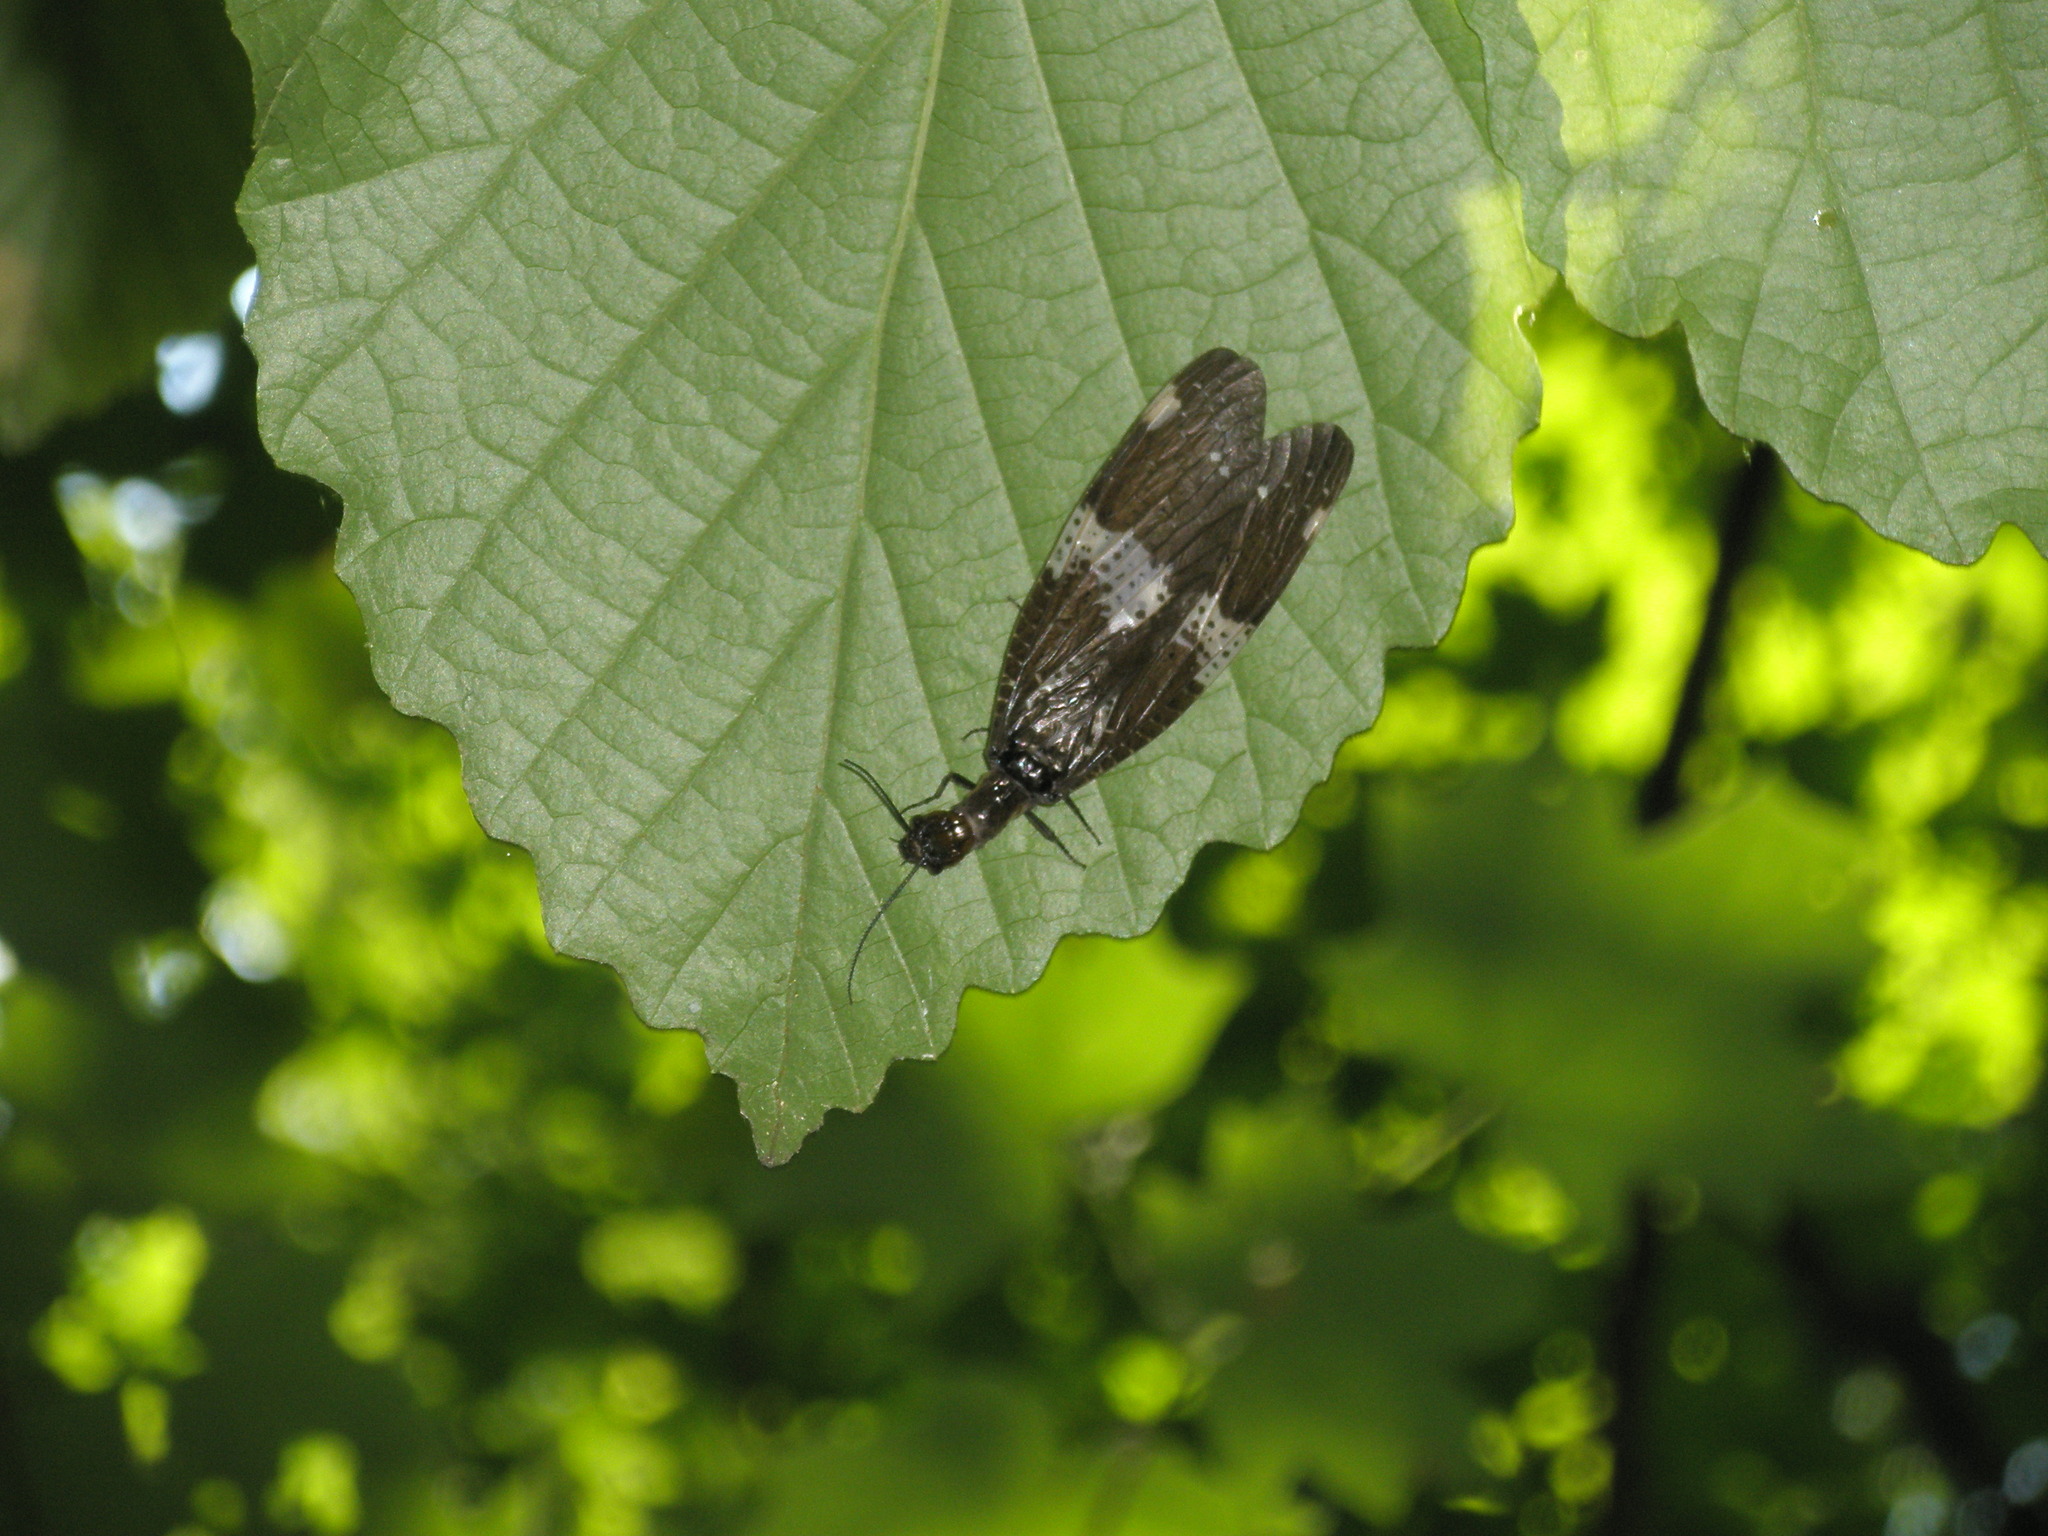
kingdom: Animalia
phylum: Arthropoda
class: Insecta
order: Megaloptera
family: Corydalidae
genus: Nigronia
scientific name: Nigronia fasciata
